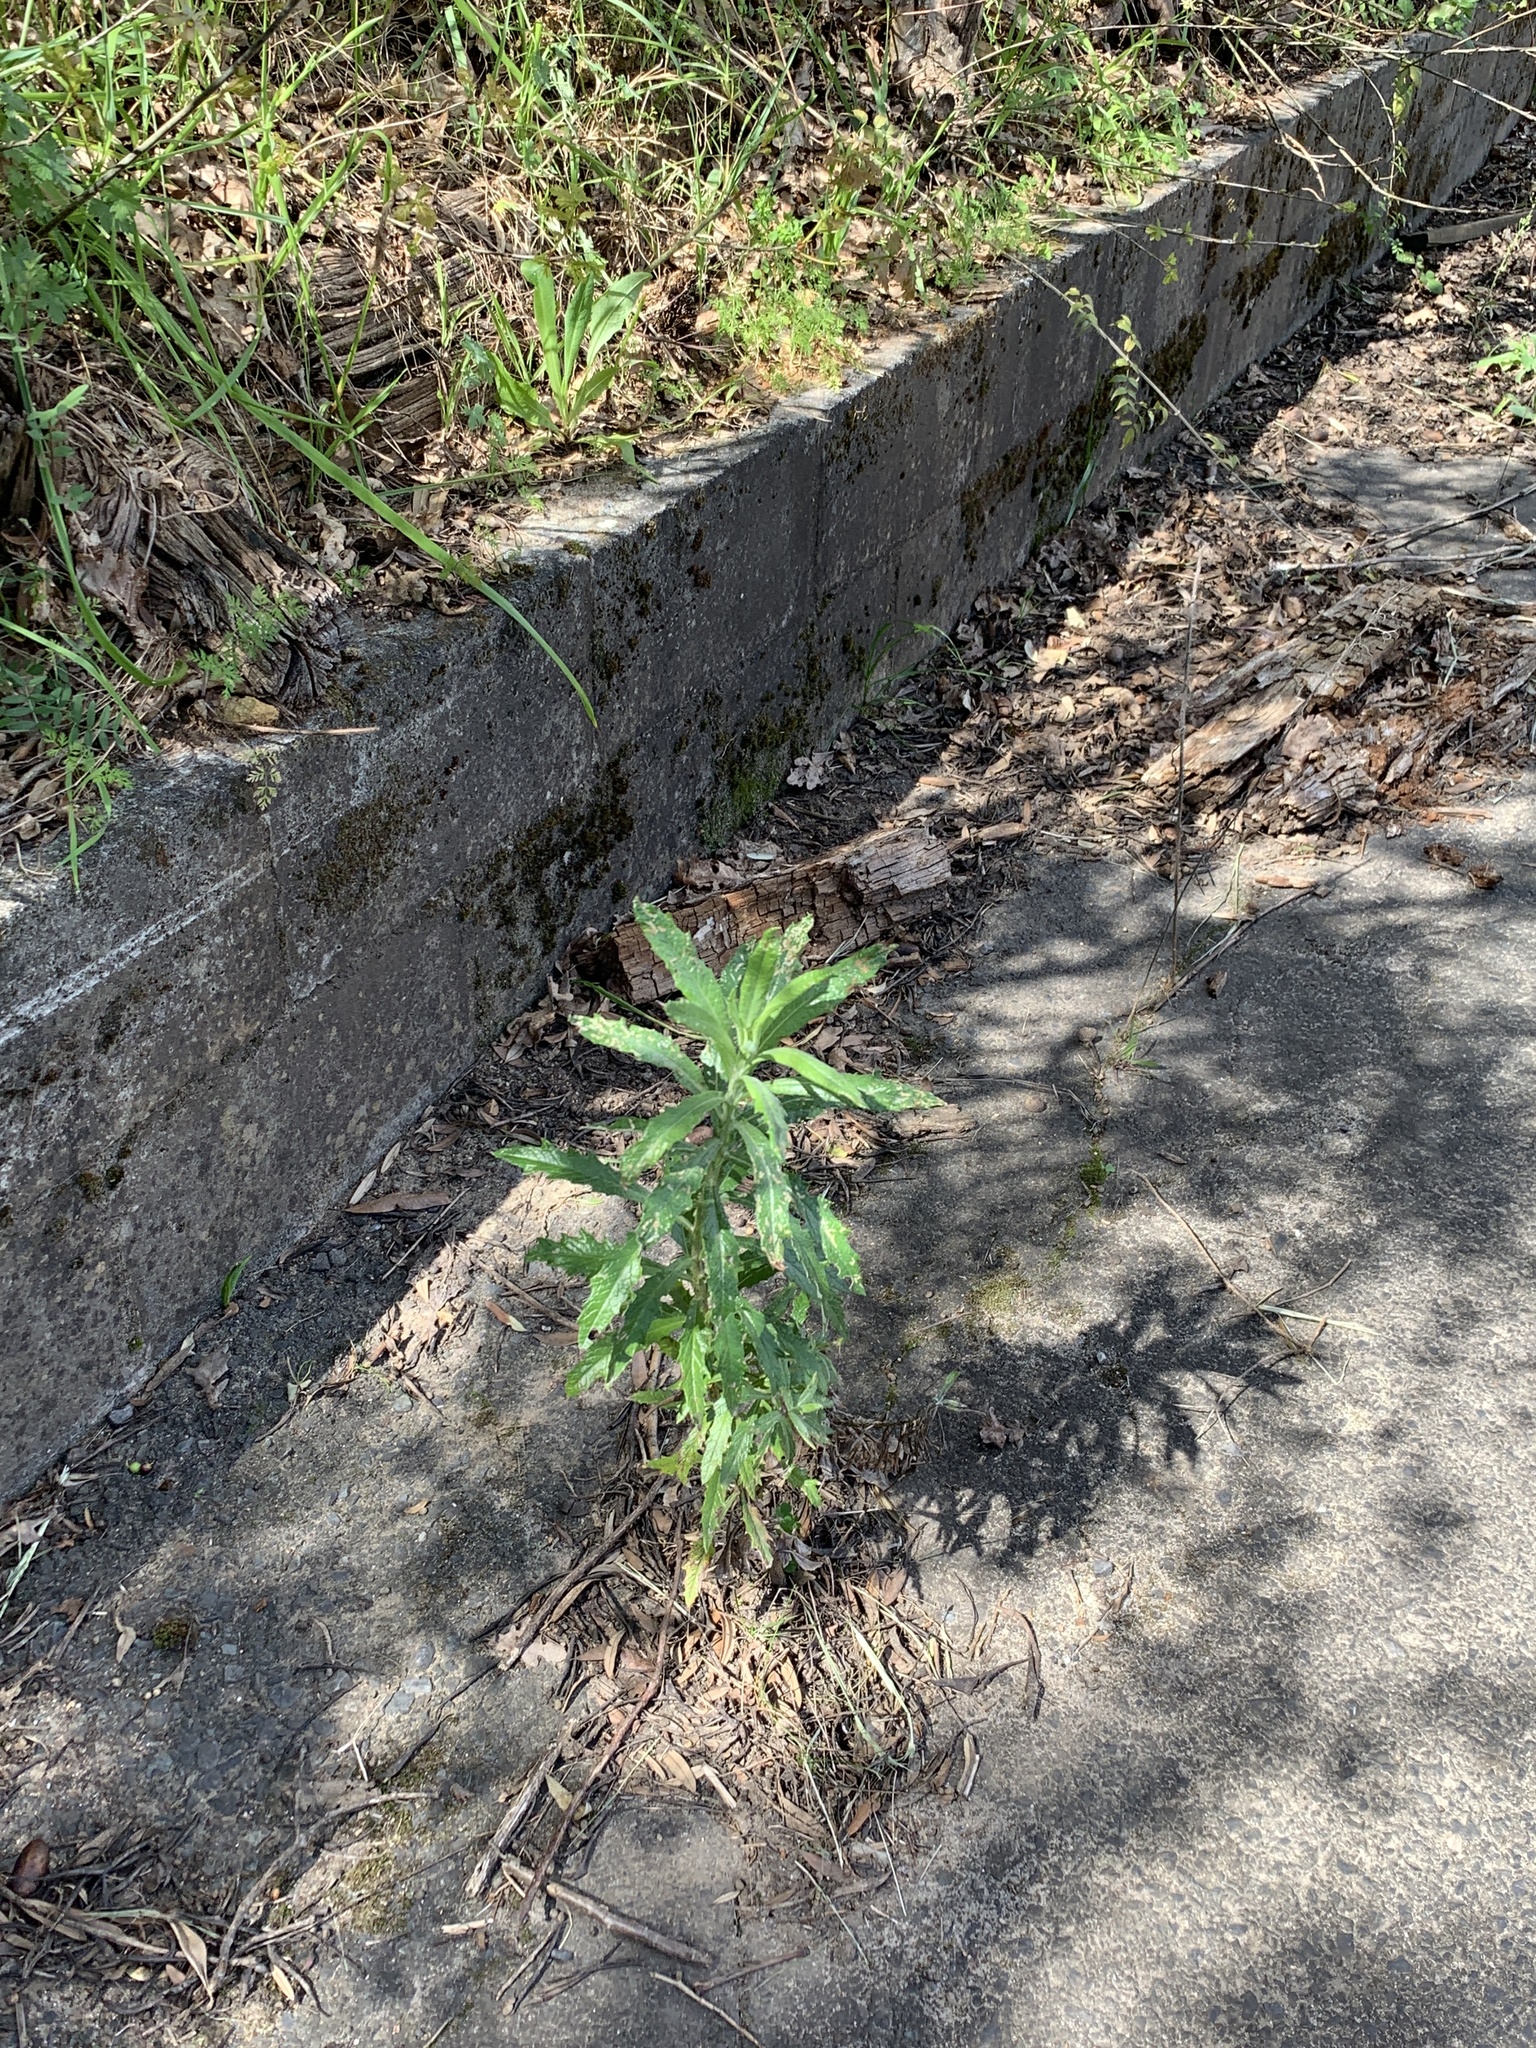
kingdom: Plantae
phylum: Tracheophyta
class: Magnoliopsida
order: Asterales
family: Asteraceae
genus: Senecio
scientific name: Senecio pterophorus
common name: Shoddy ragwort
